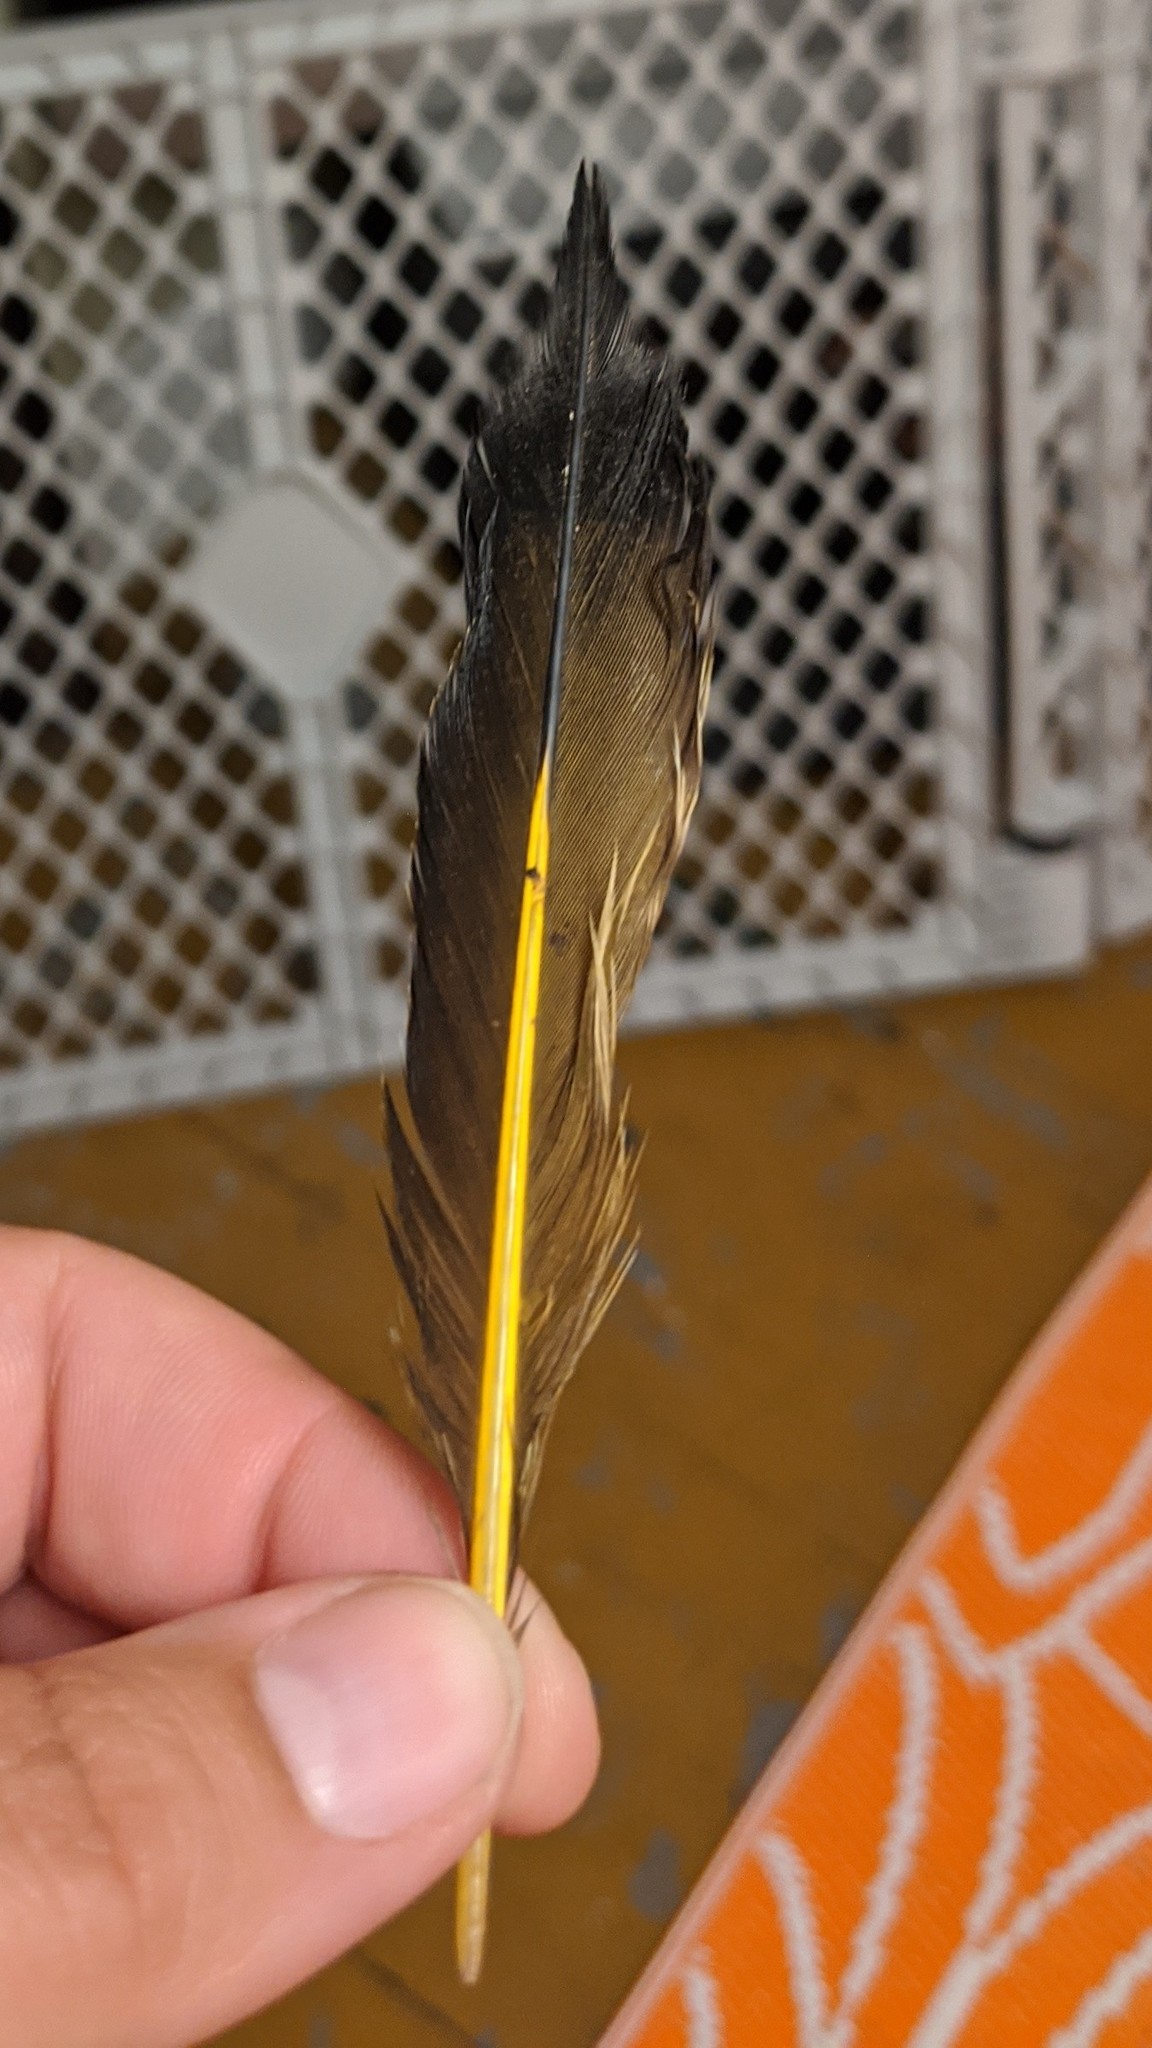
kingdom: Animalia
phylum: Chordata
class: Aves
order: Piciformes
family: Picidae
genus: Colaptes
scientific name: Colaptes auratus
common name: Northern flicker
